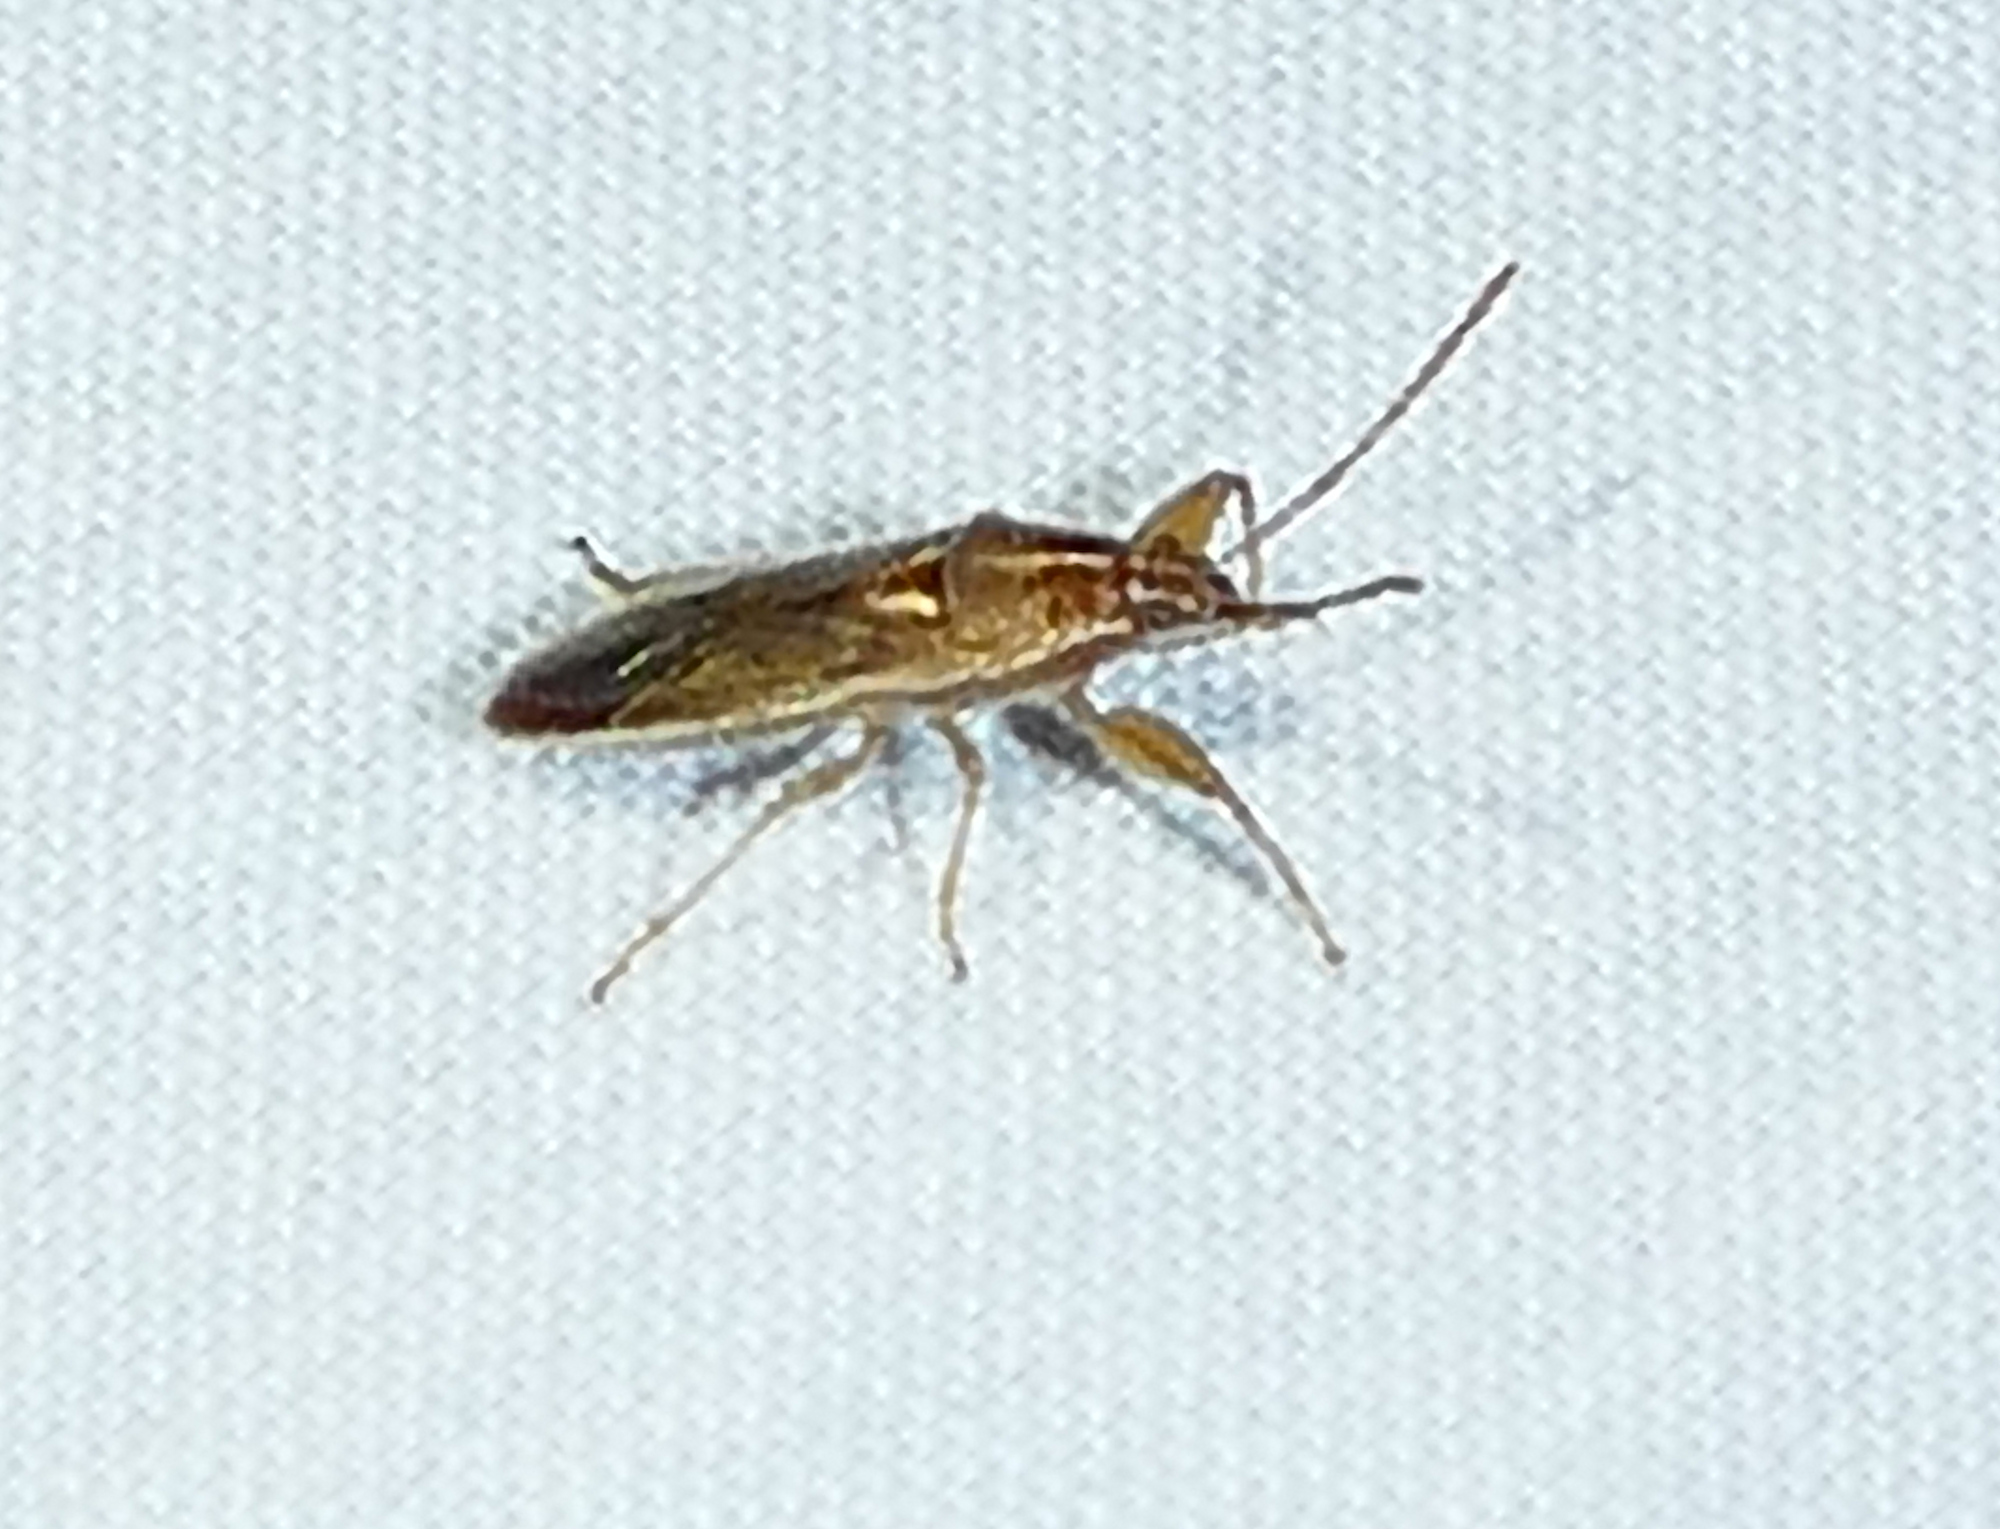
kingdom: Animalia
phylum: Arthropoda
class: Insecta
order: Hemiptera
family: Pachygronthidae
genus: Oedancala
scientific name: Oedancala crassimana
